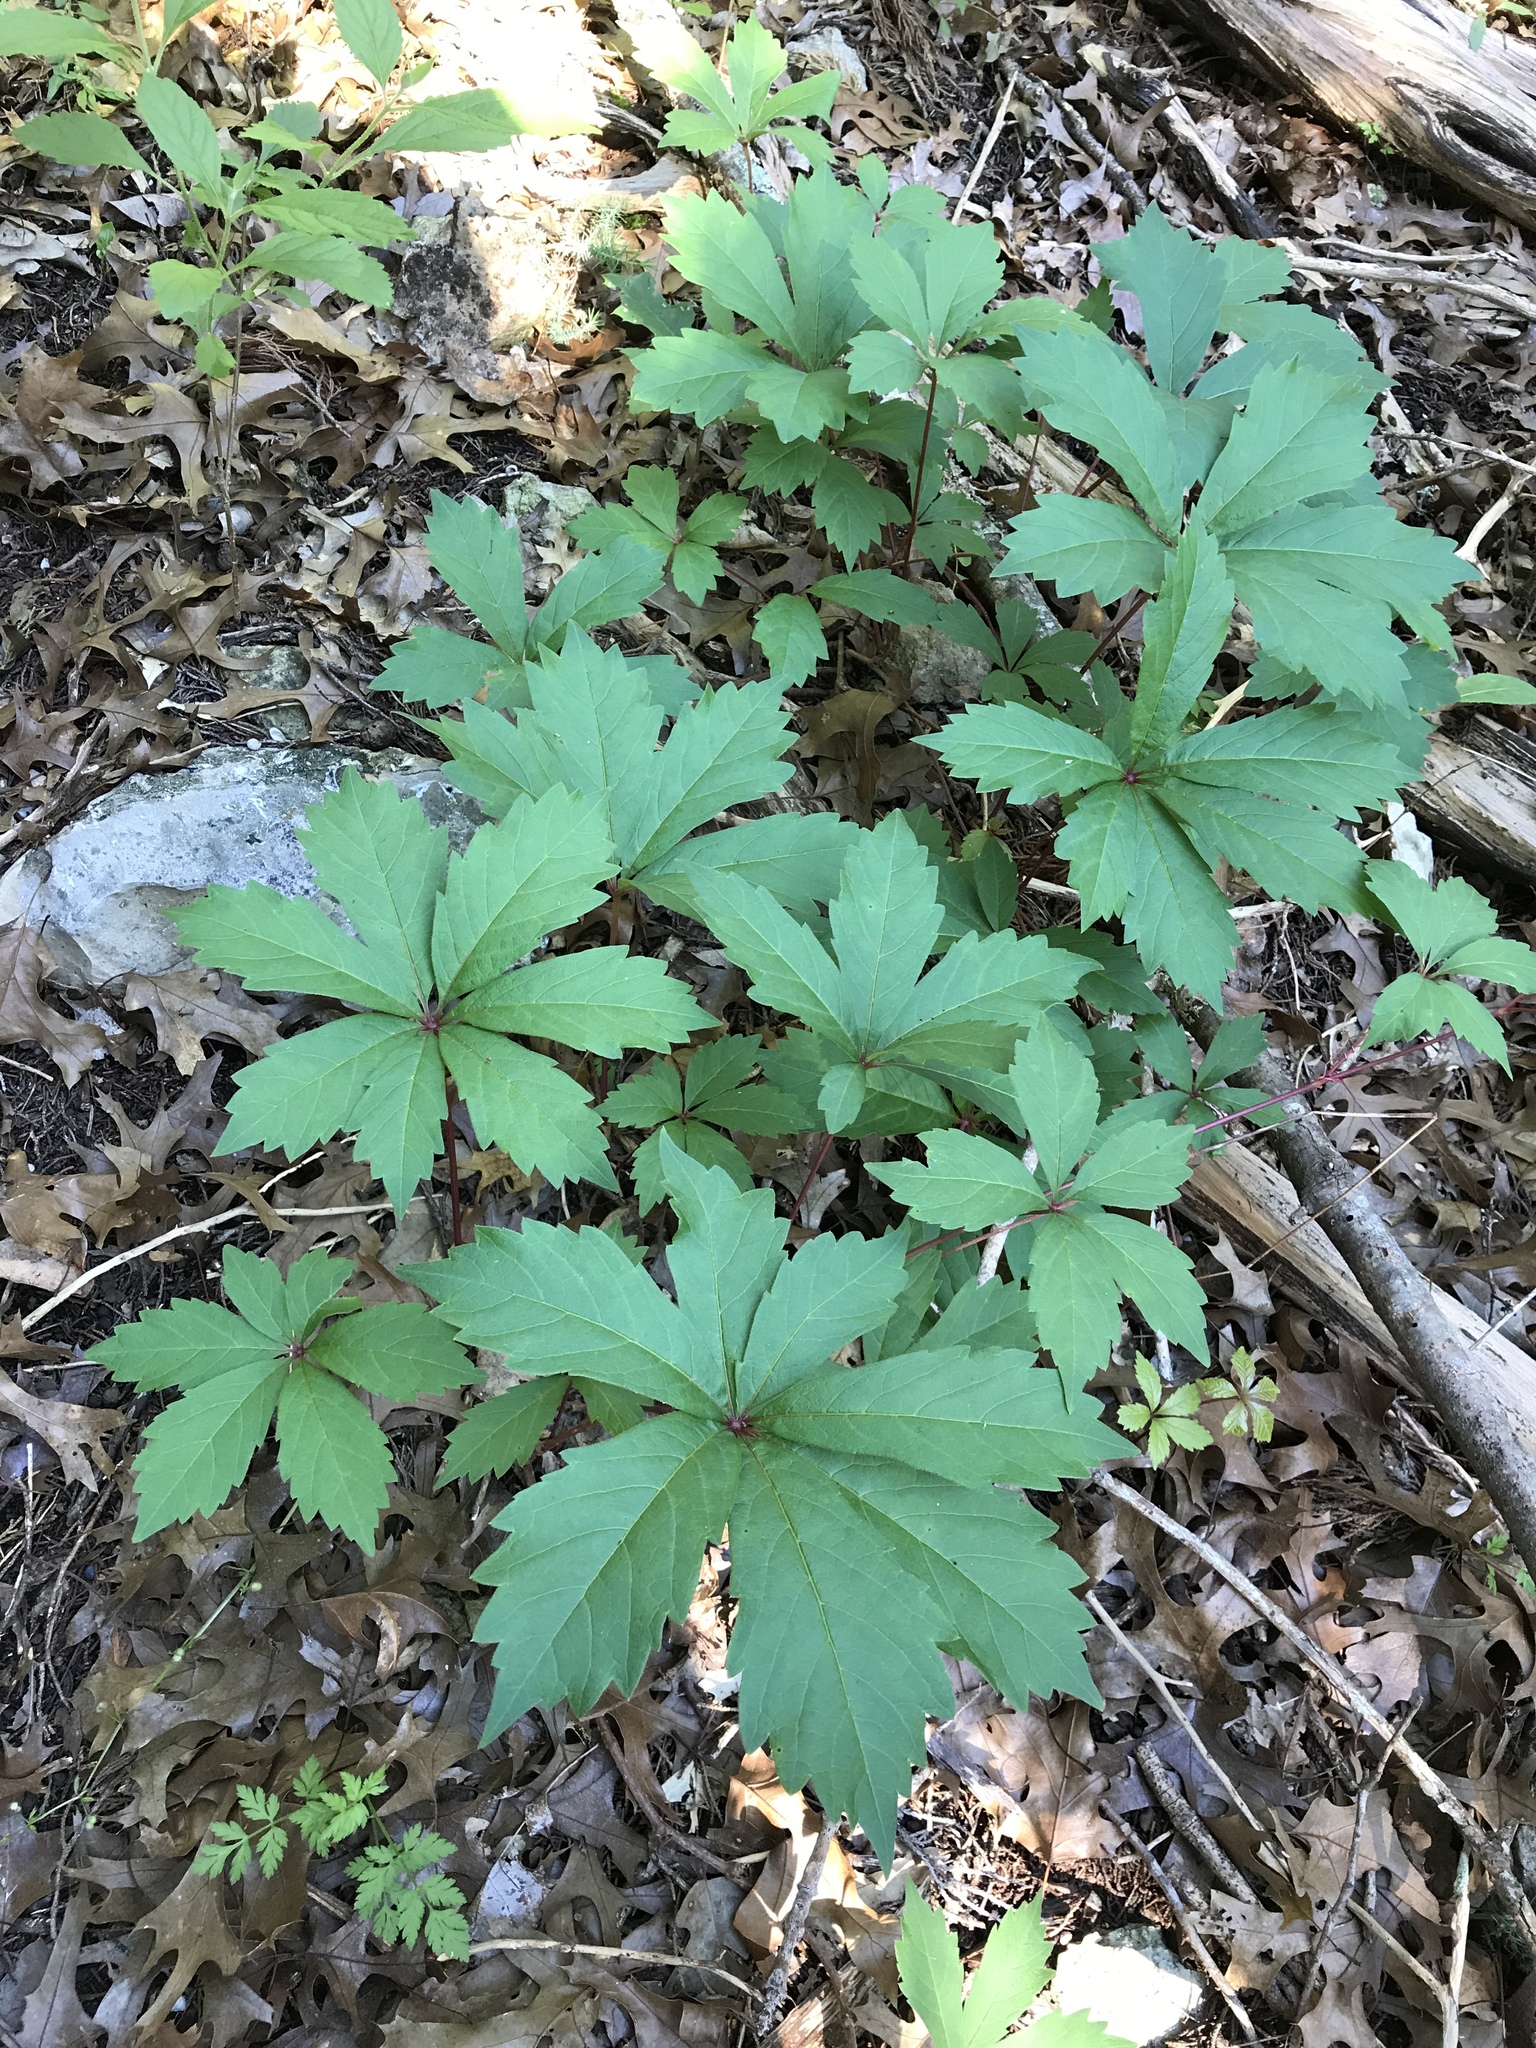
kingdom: Plantae
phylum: Tracheophyta
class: Magnoliopsida
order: Vitales
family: Vitaceae
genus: Parthenocissus
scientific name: Parthenocissus heptaphylla
